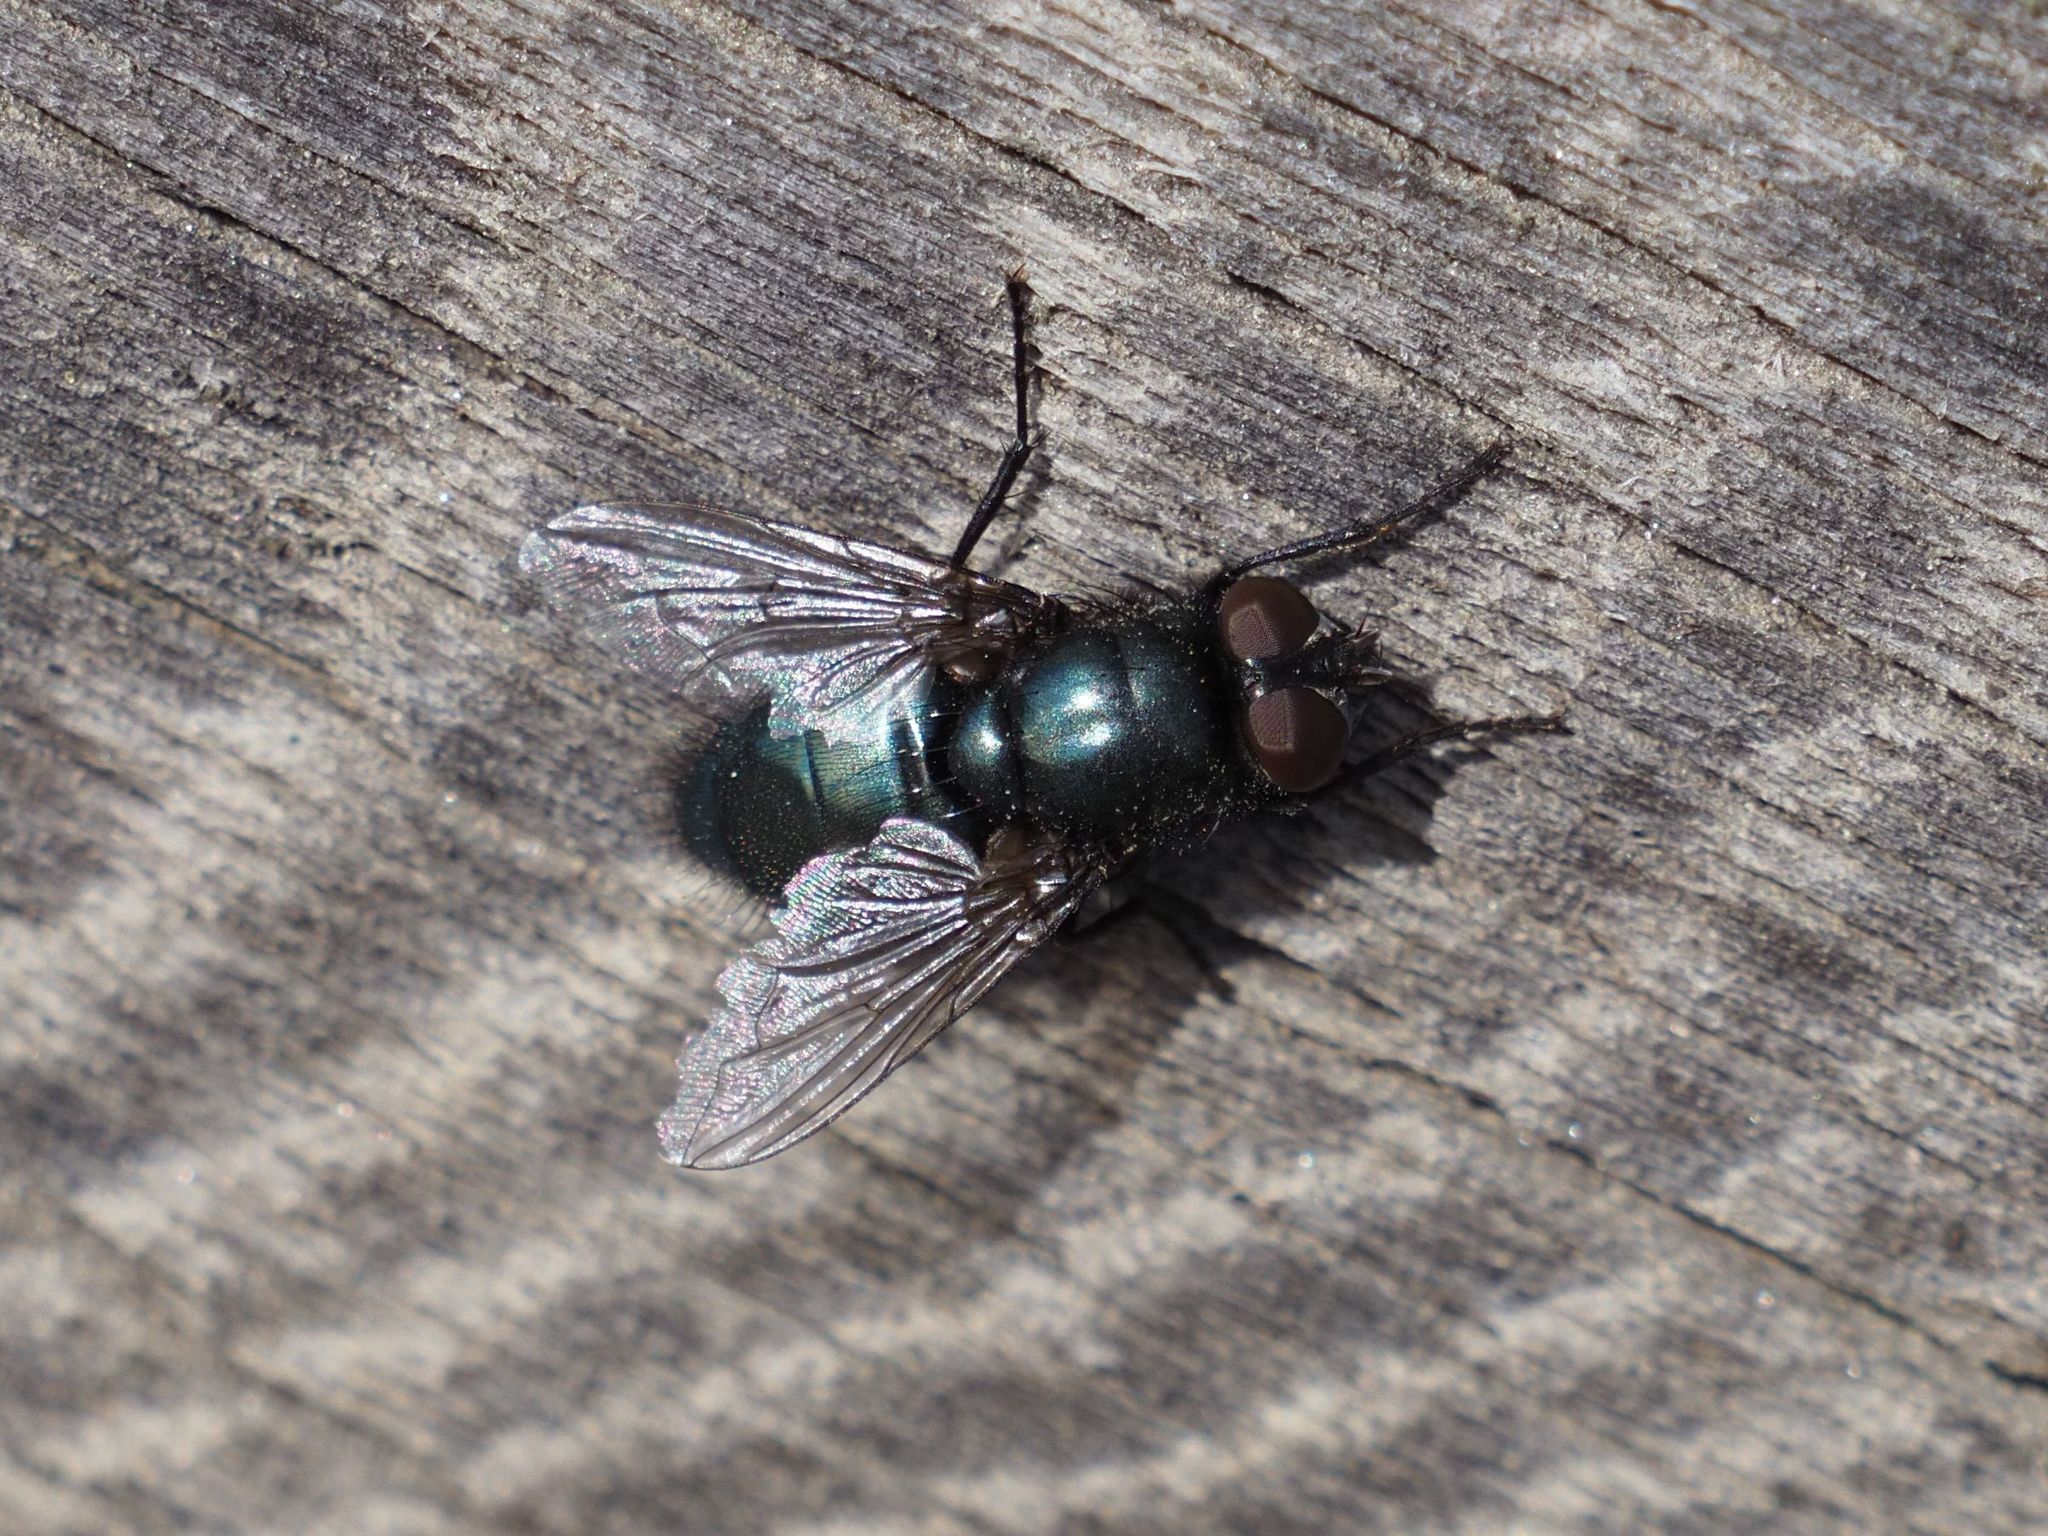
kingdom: Animalia
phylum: Arthropoda
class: Insecta
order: Diptera
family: Calliphoridae
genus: Protophormia
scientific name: Protophormia terraenovae
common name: Blackbottle
